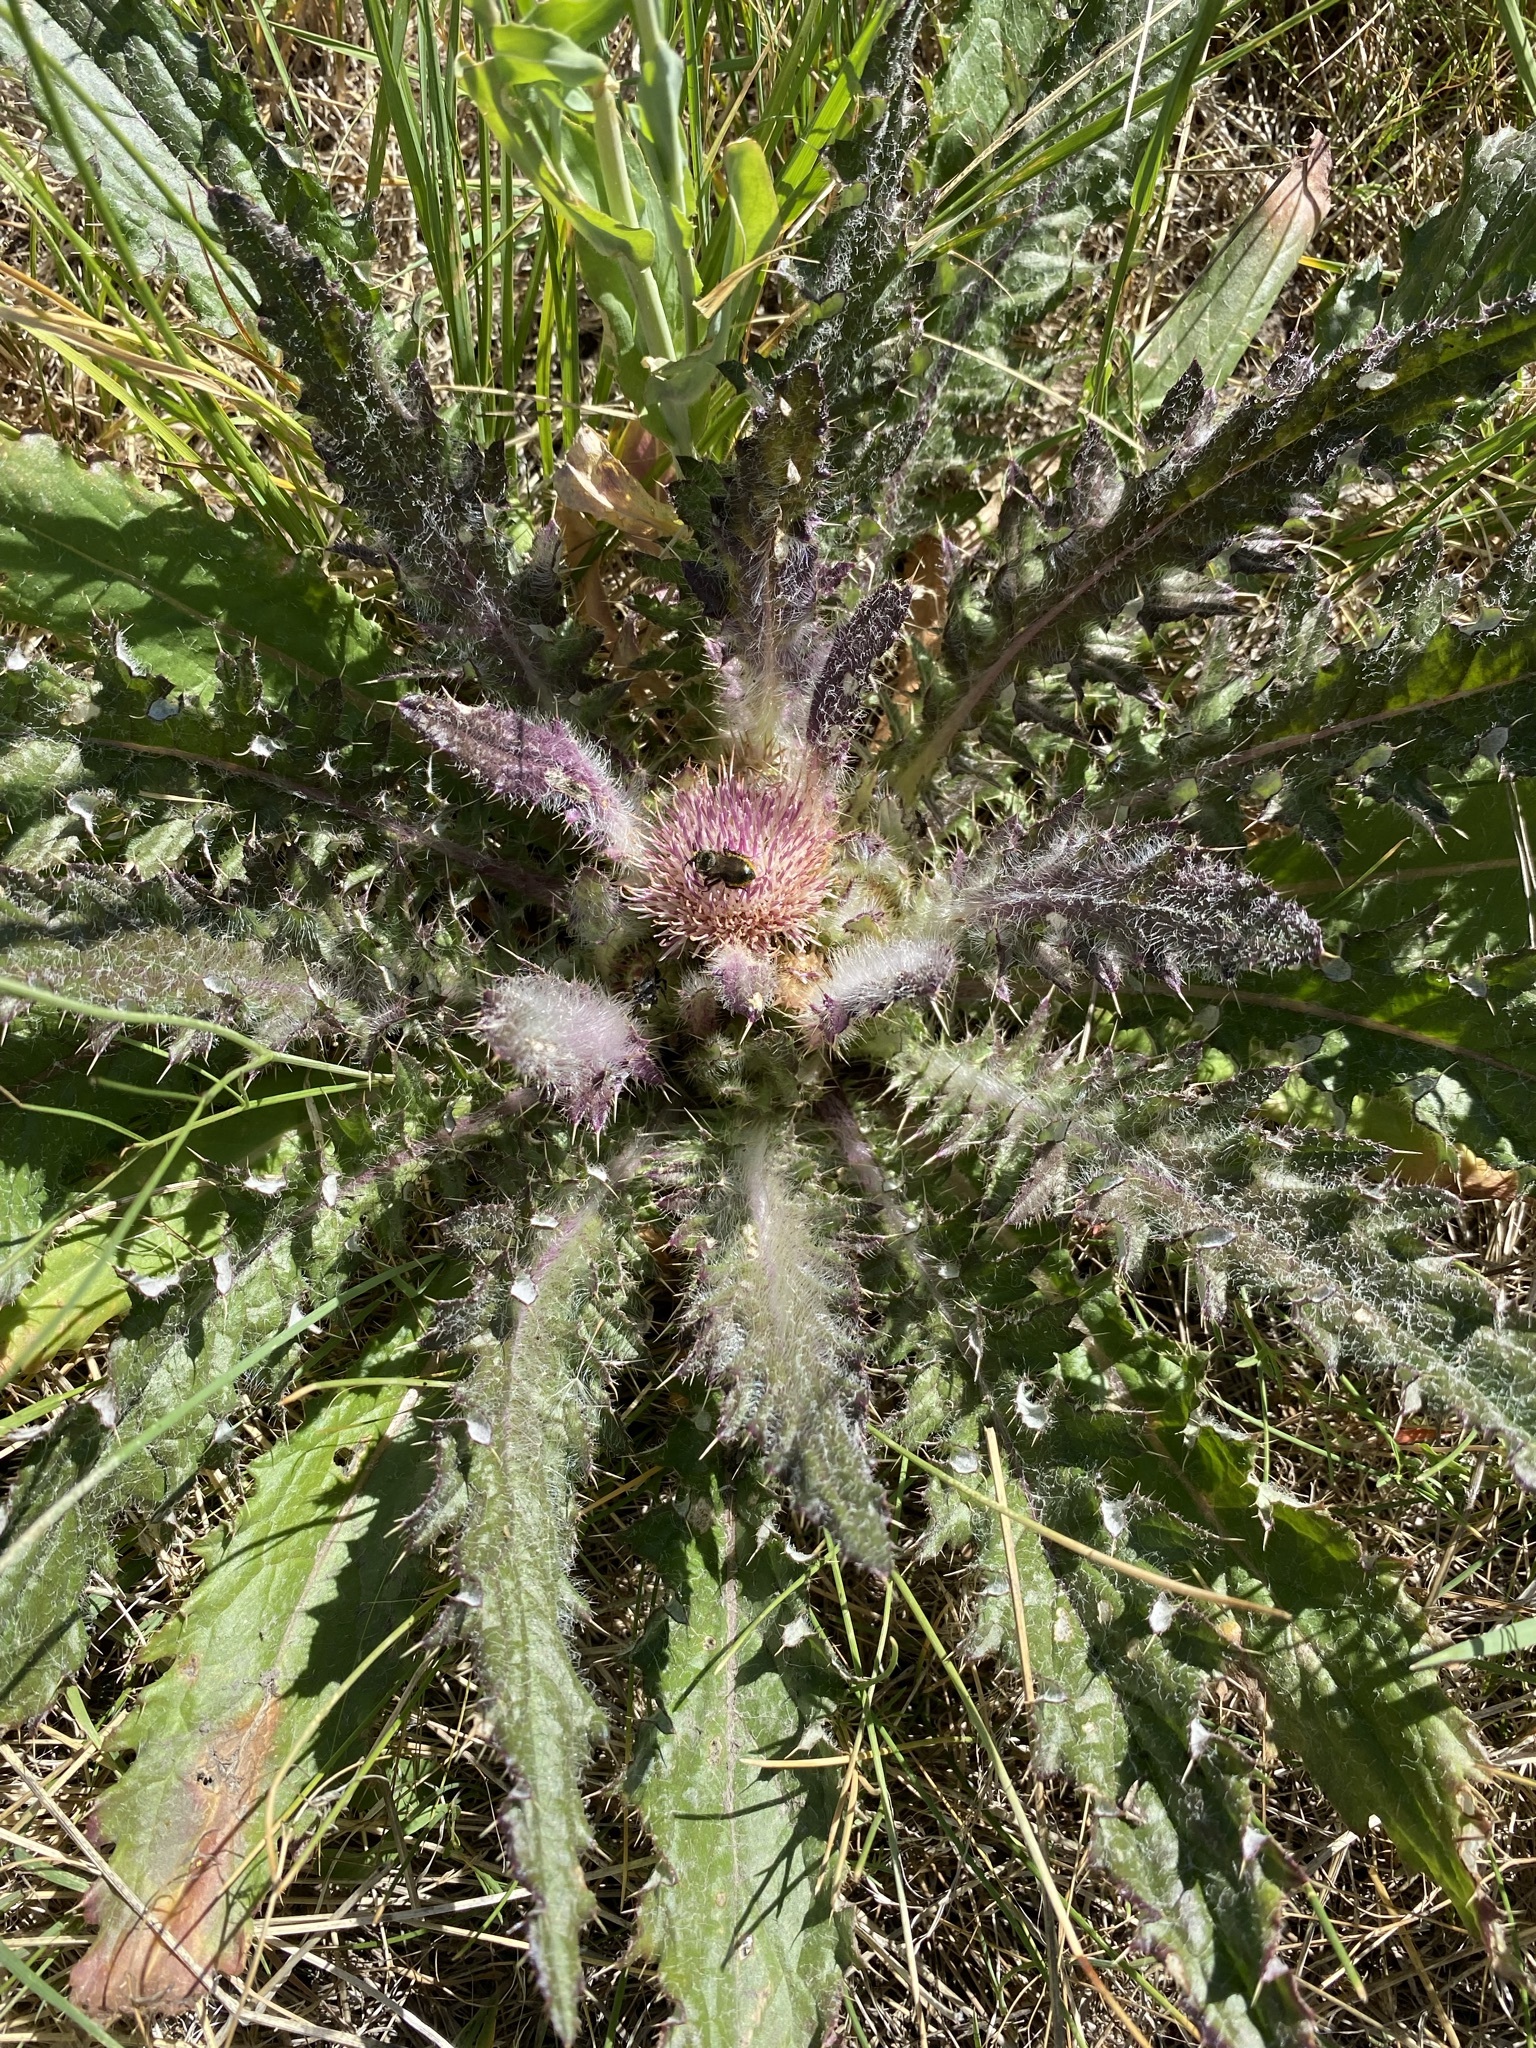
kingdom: Plantae
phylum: Tracheophyta
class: Magnoliopsida
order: Asterales
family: Asteraceae
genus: Cirsium
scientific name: Cirsium scariosum
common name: Meadow thistle
